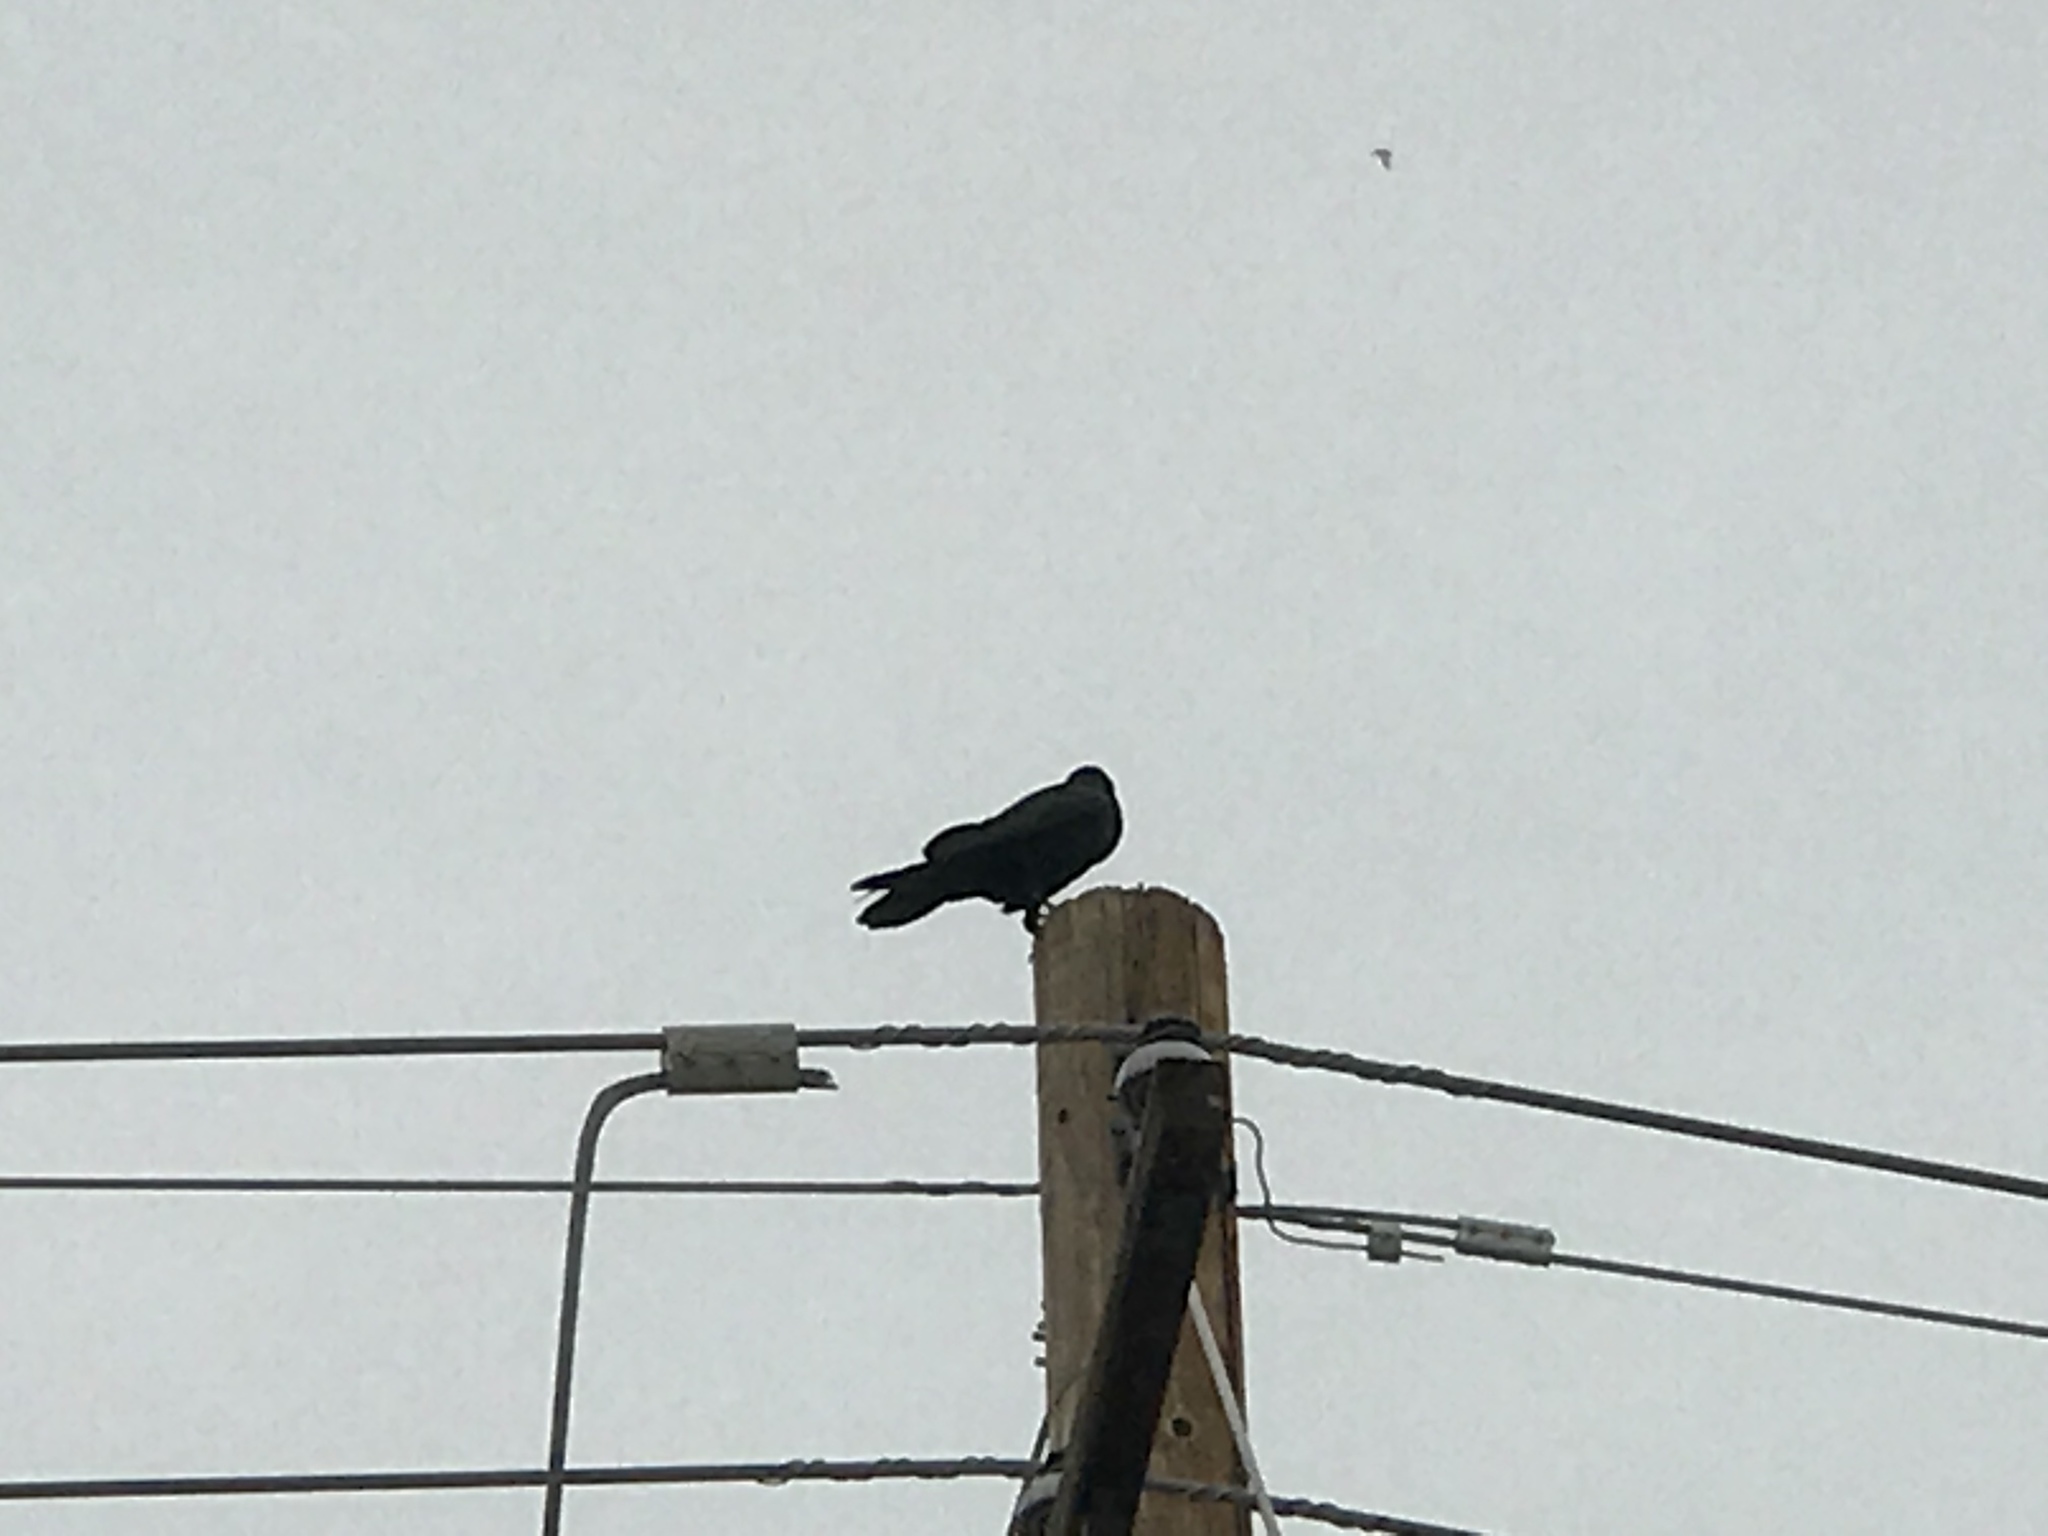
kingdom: Animalia
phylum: Chordata
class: Aves
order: Passeriformes
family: Corvidae
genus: Corvus
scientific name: Corvus corax
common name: Common raven
